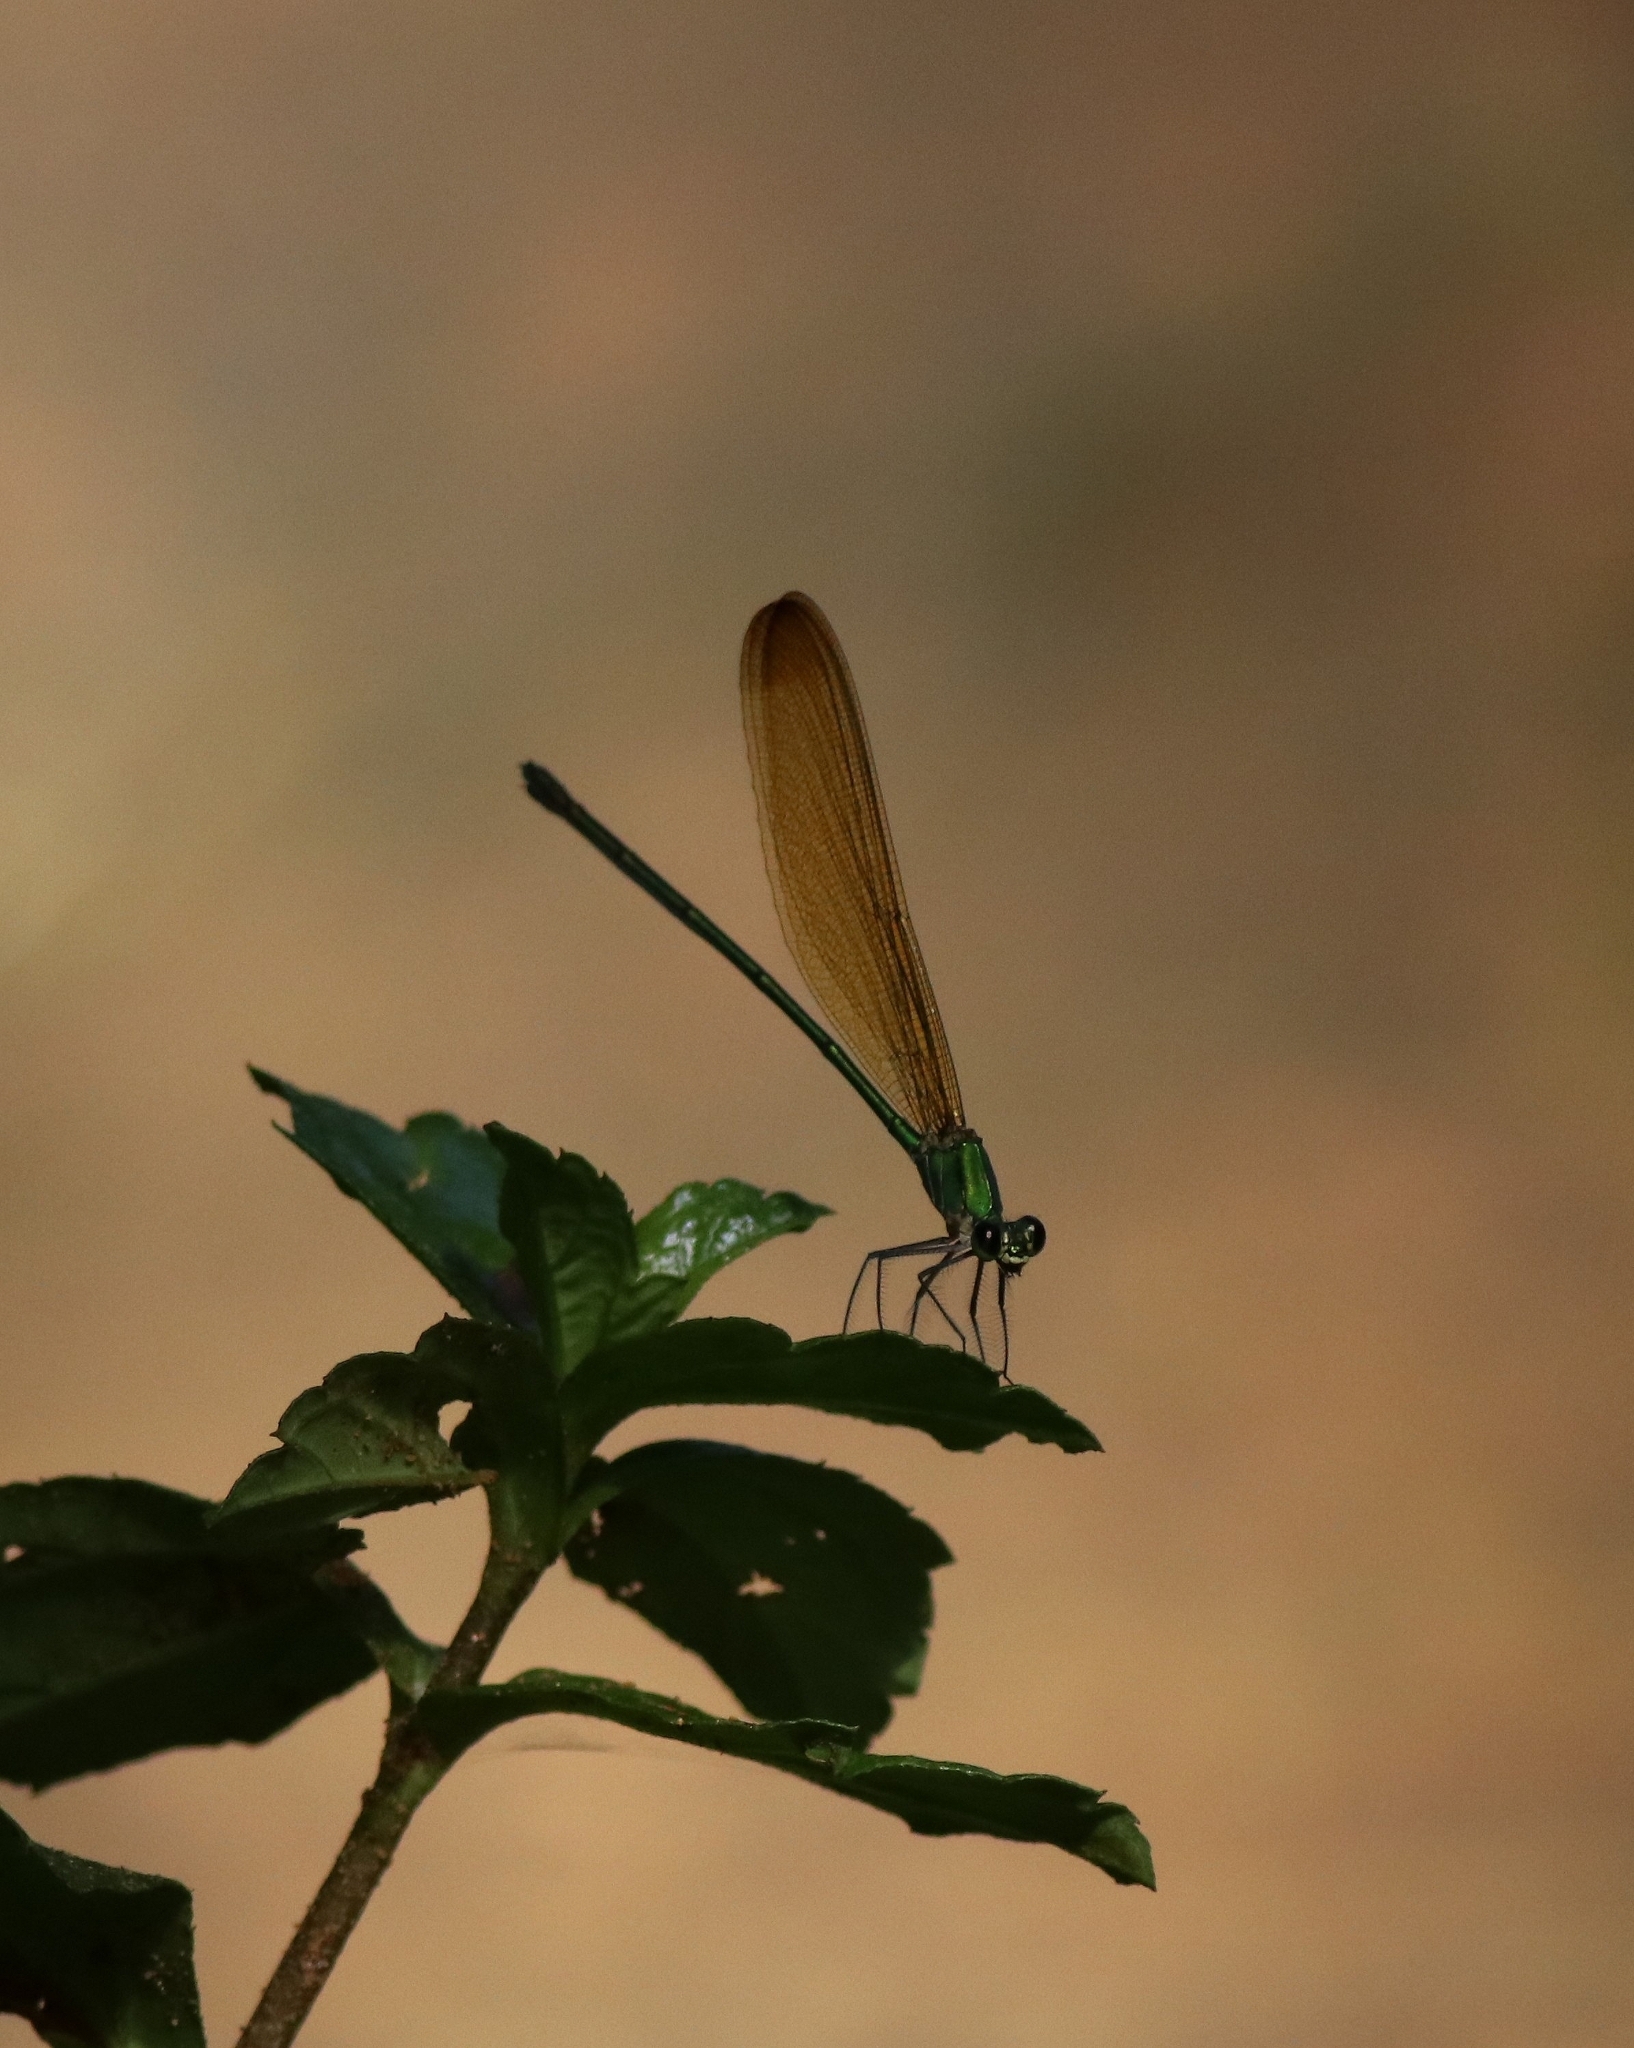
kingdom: Animalia
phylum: Arthropoda
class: Insecta
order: Odonata
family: Calopterygidae
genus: Vestalis
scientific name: Vestalis gracilis
